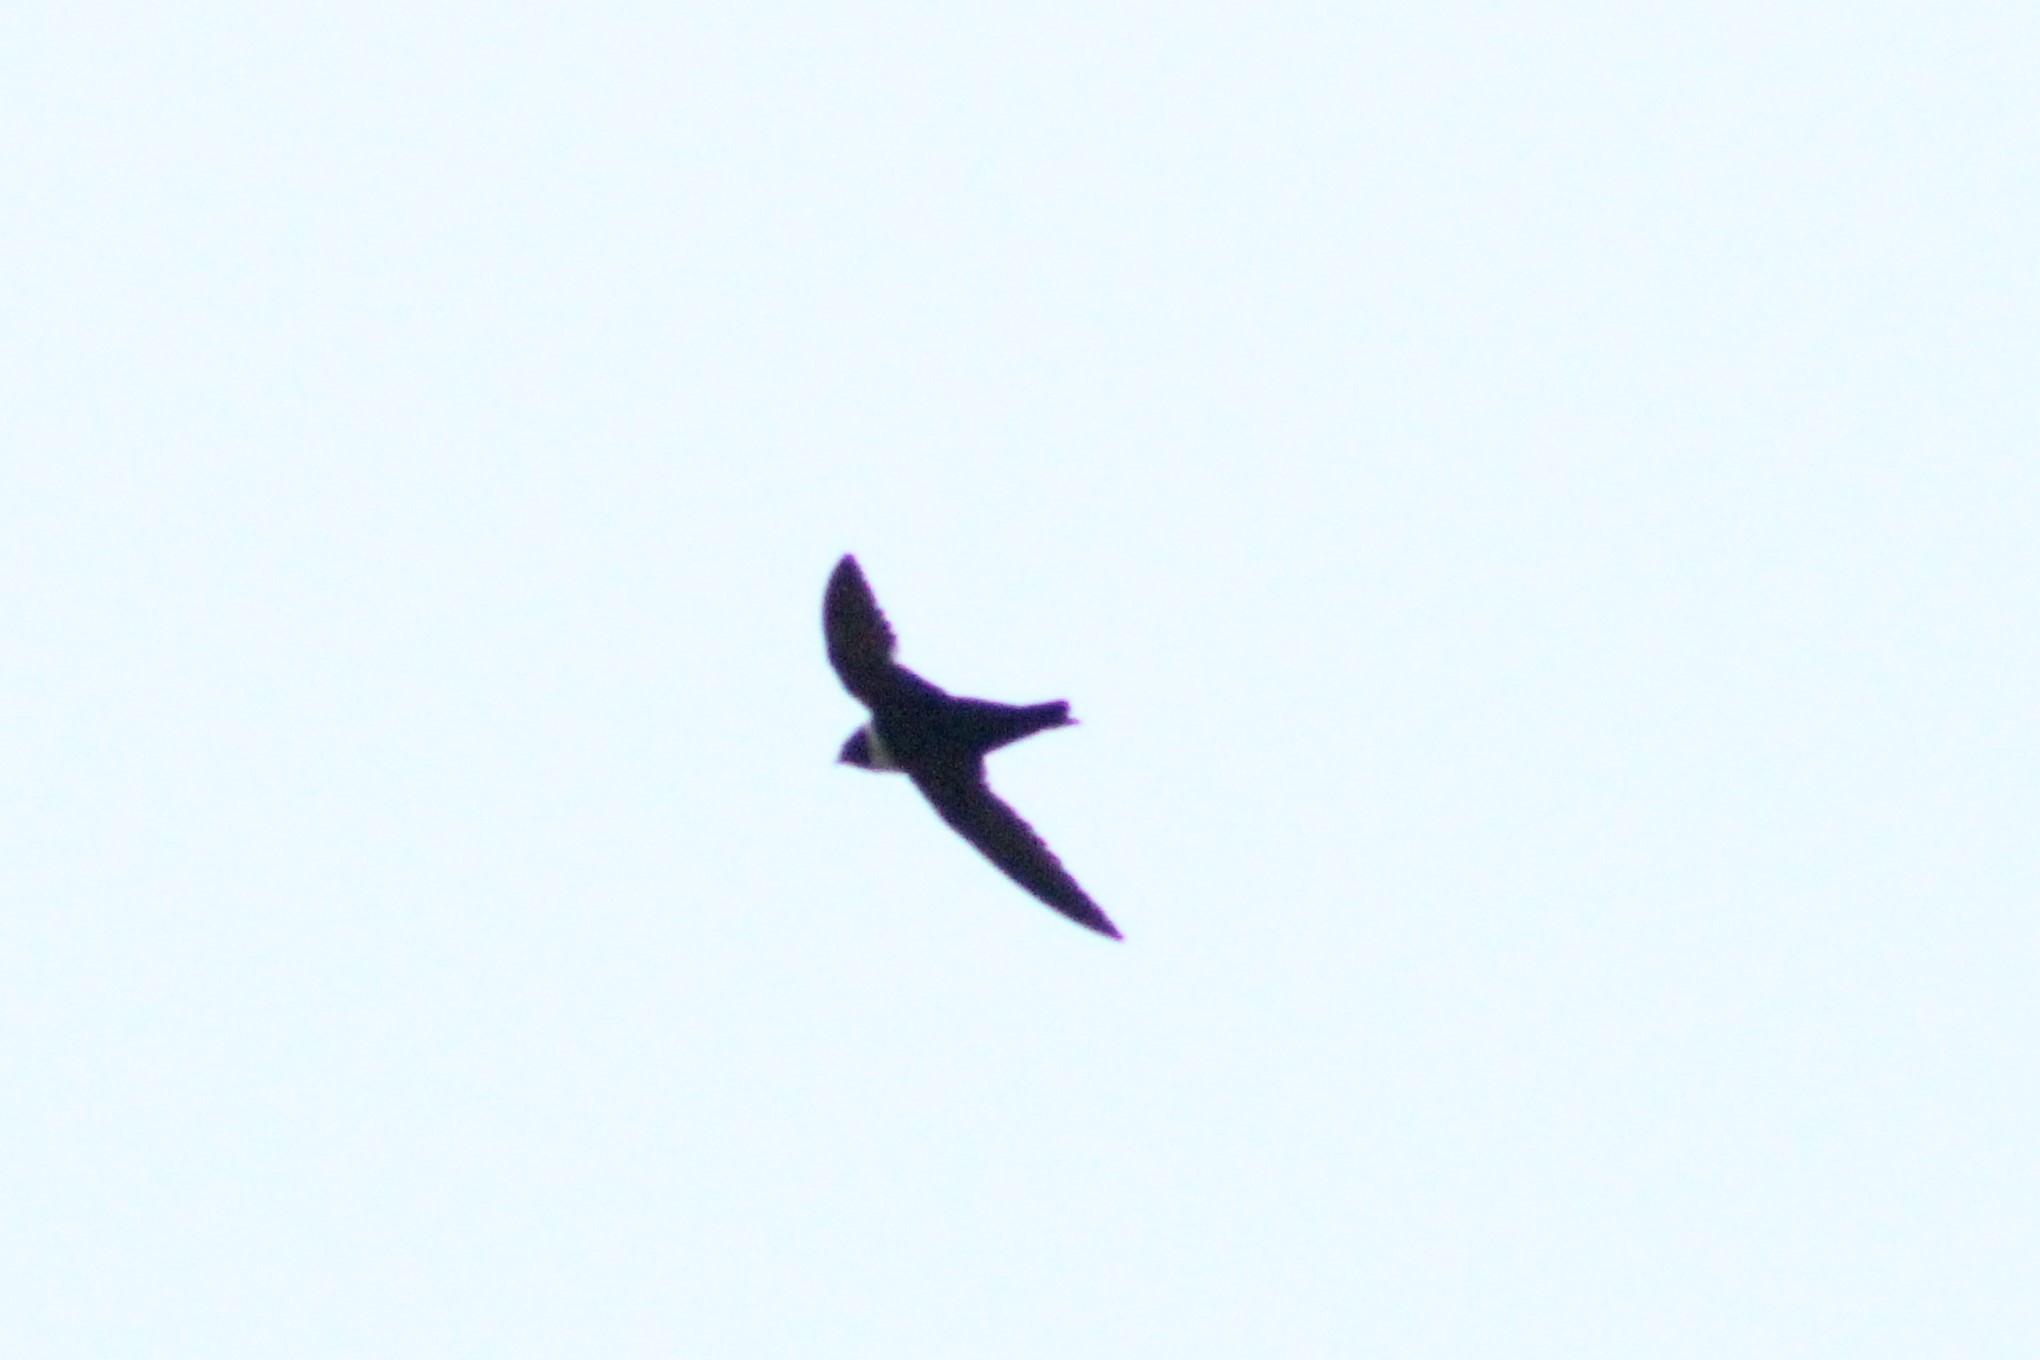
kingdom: Animalia
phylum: Chordata
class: Aves
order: Apodiformes
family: Apodidae
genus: Streptoprocne
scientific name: Streptoprocne zonaris
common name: White-collared swift
